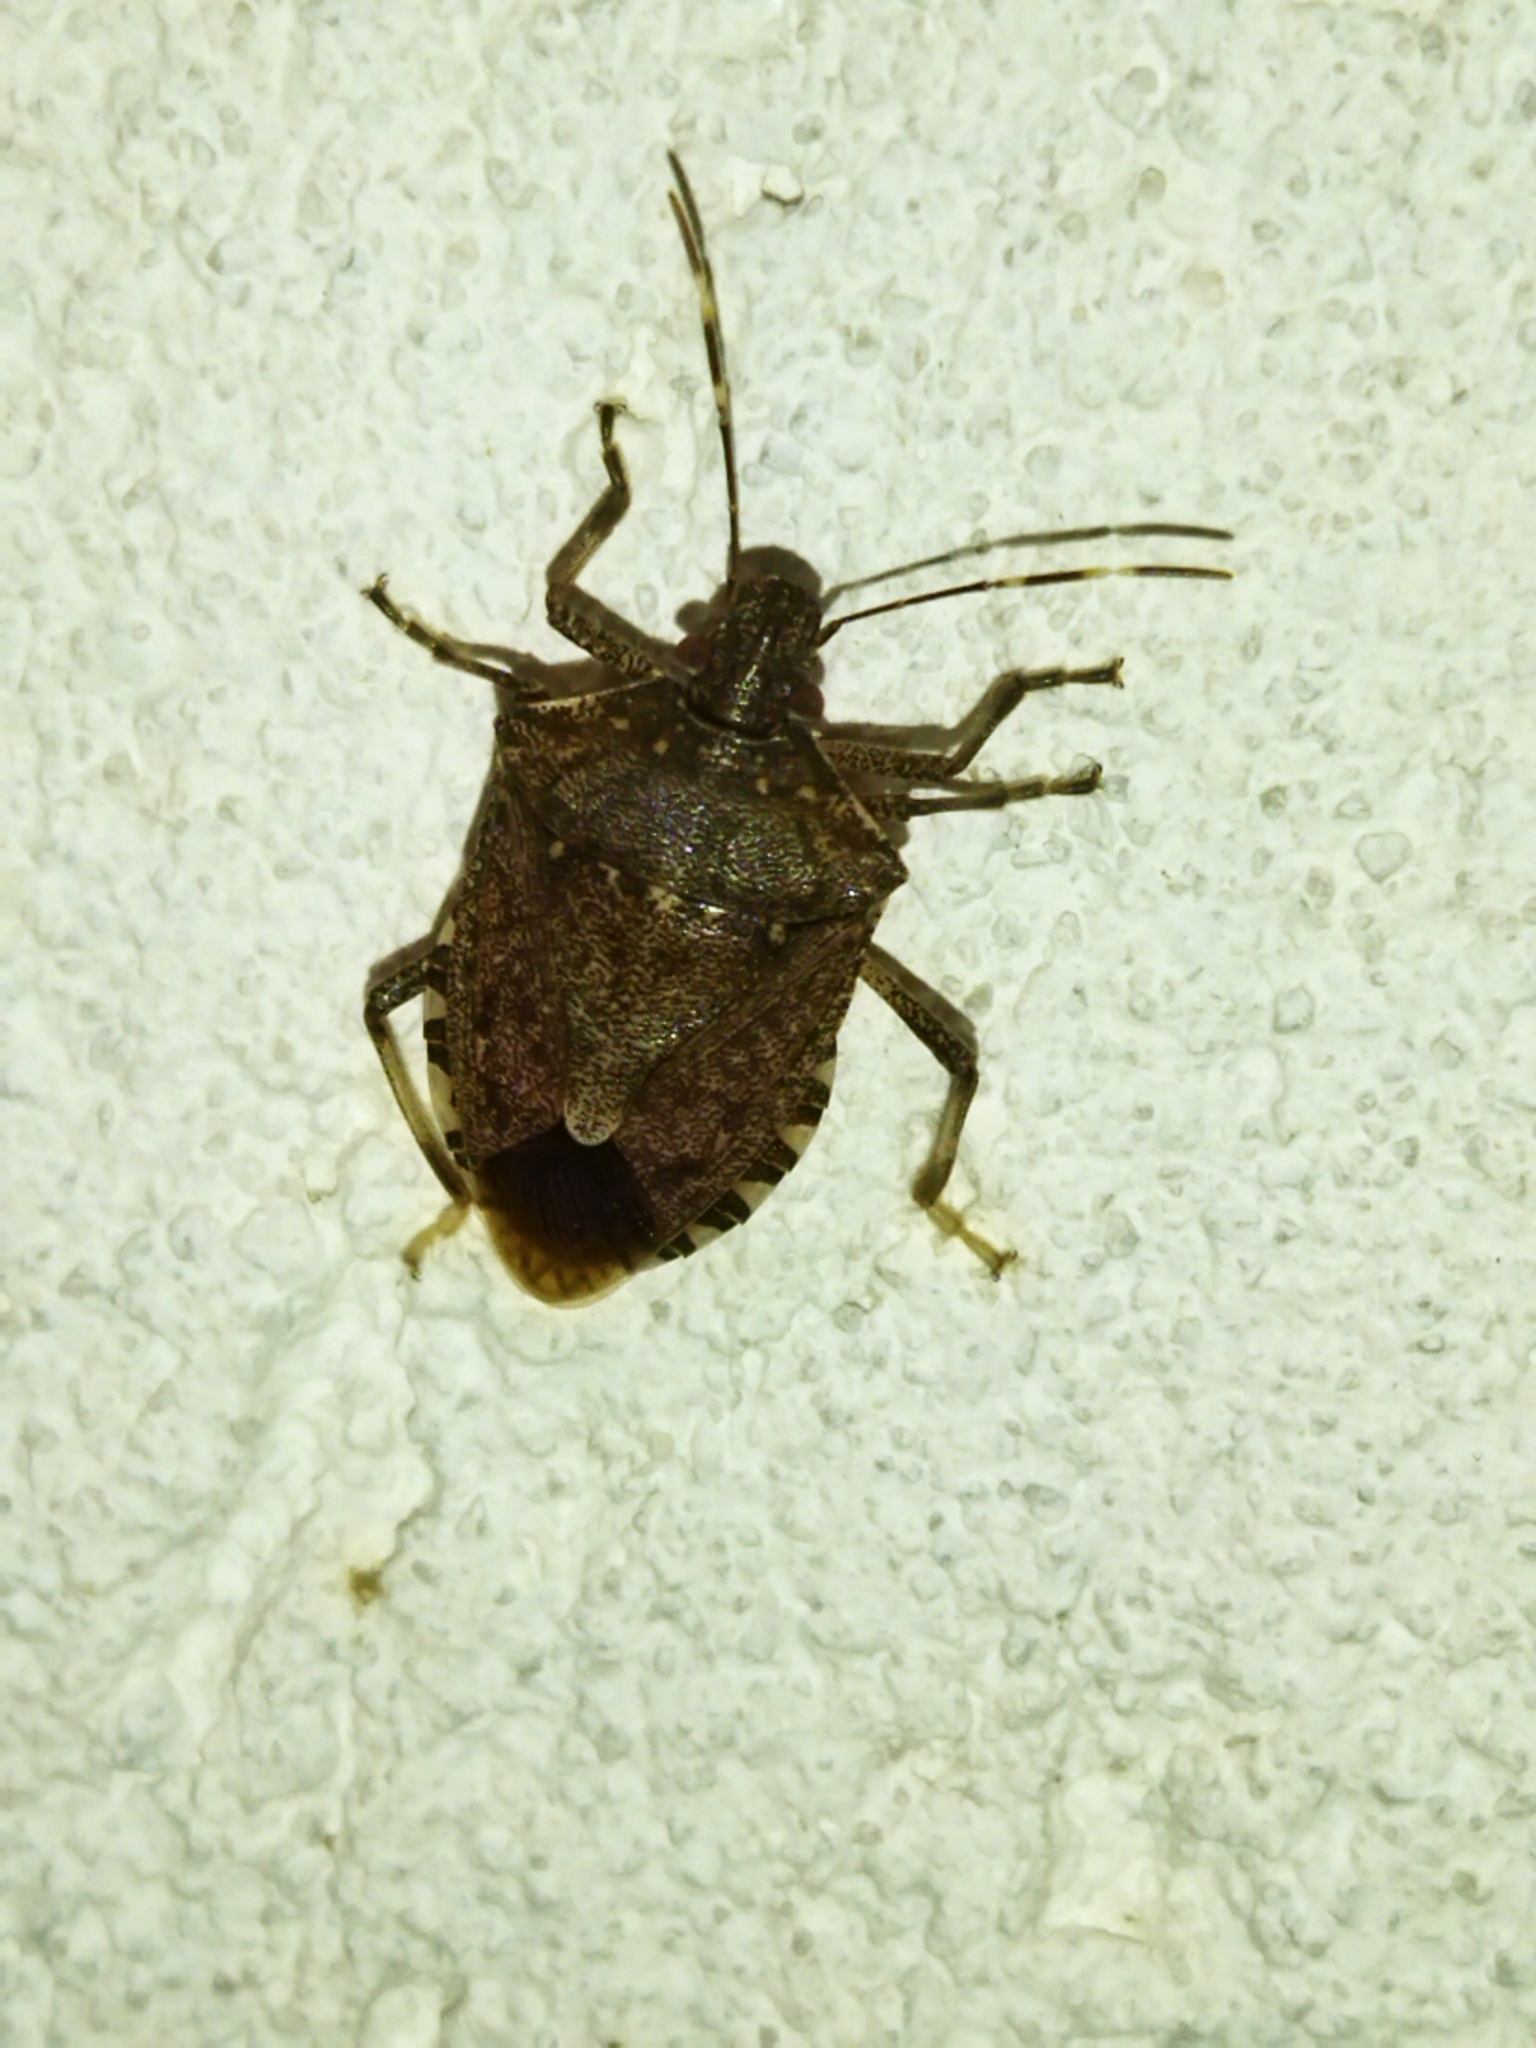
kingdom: Animalia
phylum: Arthropoda
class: Insecta
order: Hemiptera
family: Pentatomidae
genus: Halyomorpha
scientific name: Halyomorpha halys
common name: Brown marmorated stink bug
